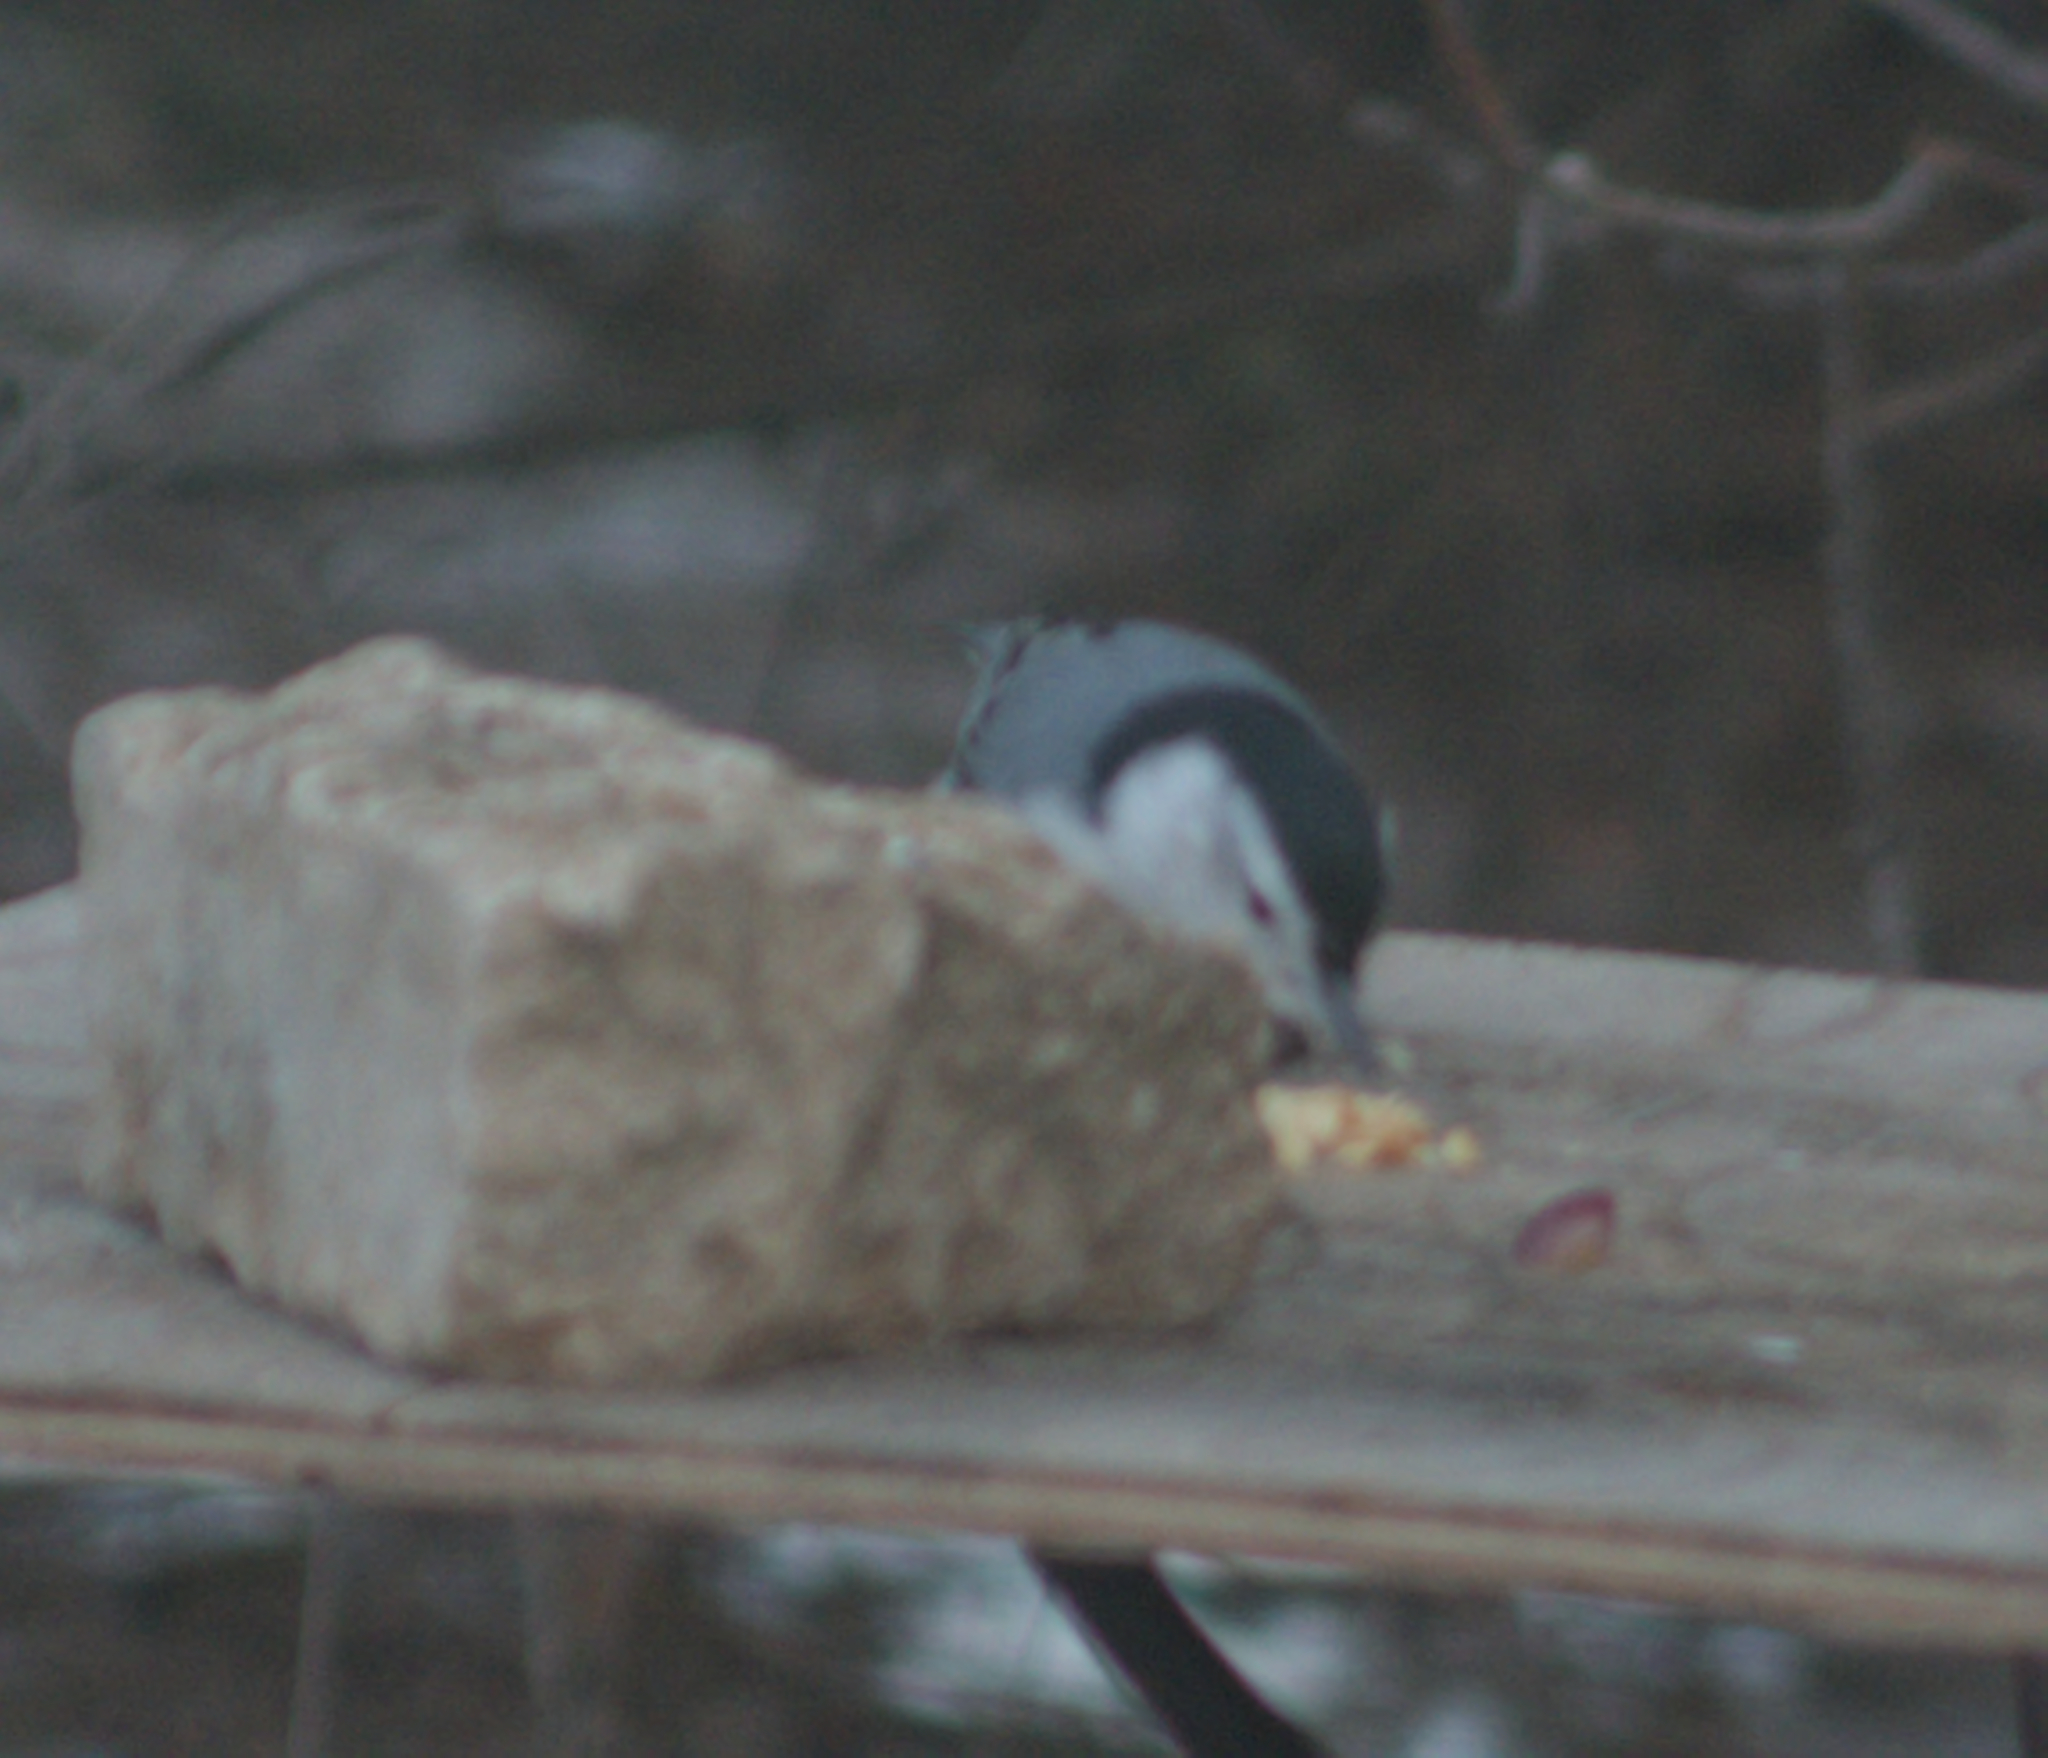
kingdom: Animalia
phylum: Chordata
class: Aves
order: Passeriformes
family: Sittidae
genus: Sitta
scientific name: Sitta carolinensis
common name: White-breasted nuthatch
